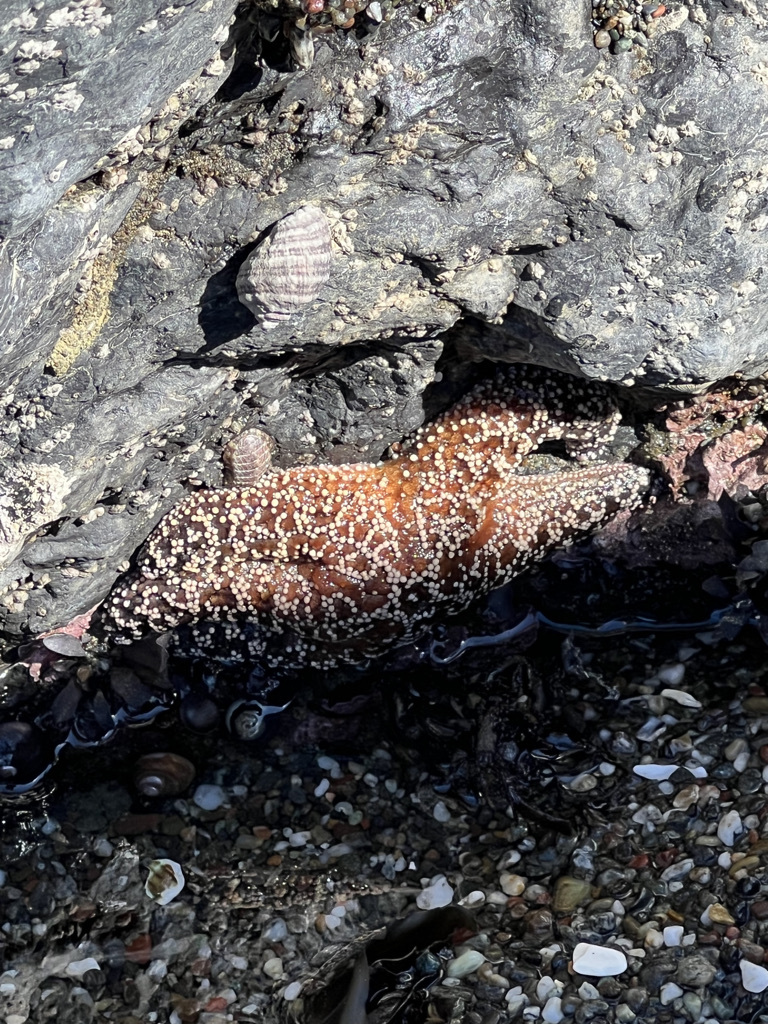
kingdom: Animalia
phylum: Echinodermata
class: Asteroidea
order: Forcipulatida
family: Asteriidae
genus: Pisaster
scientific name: Pisaster ochraceus
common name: Ochre stars
